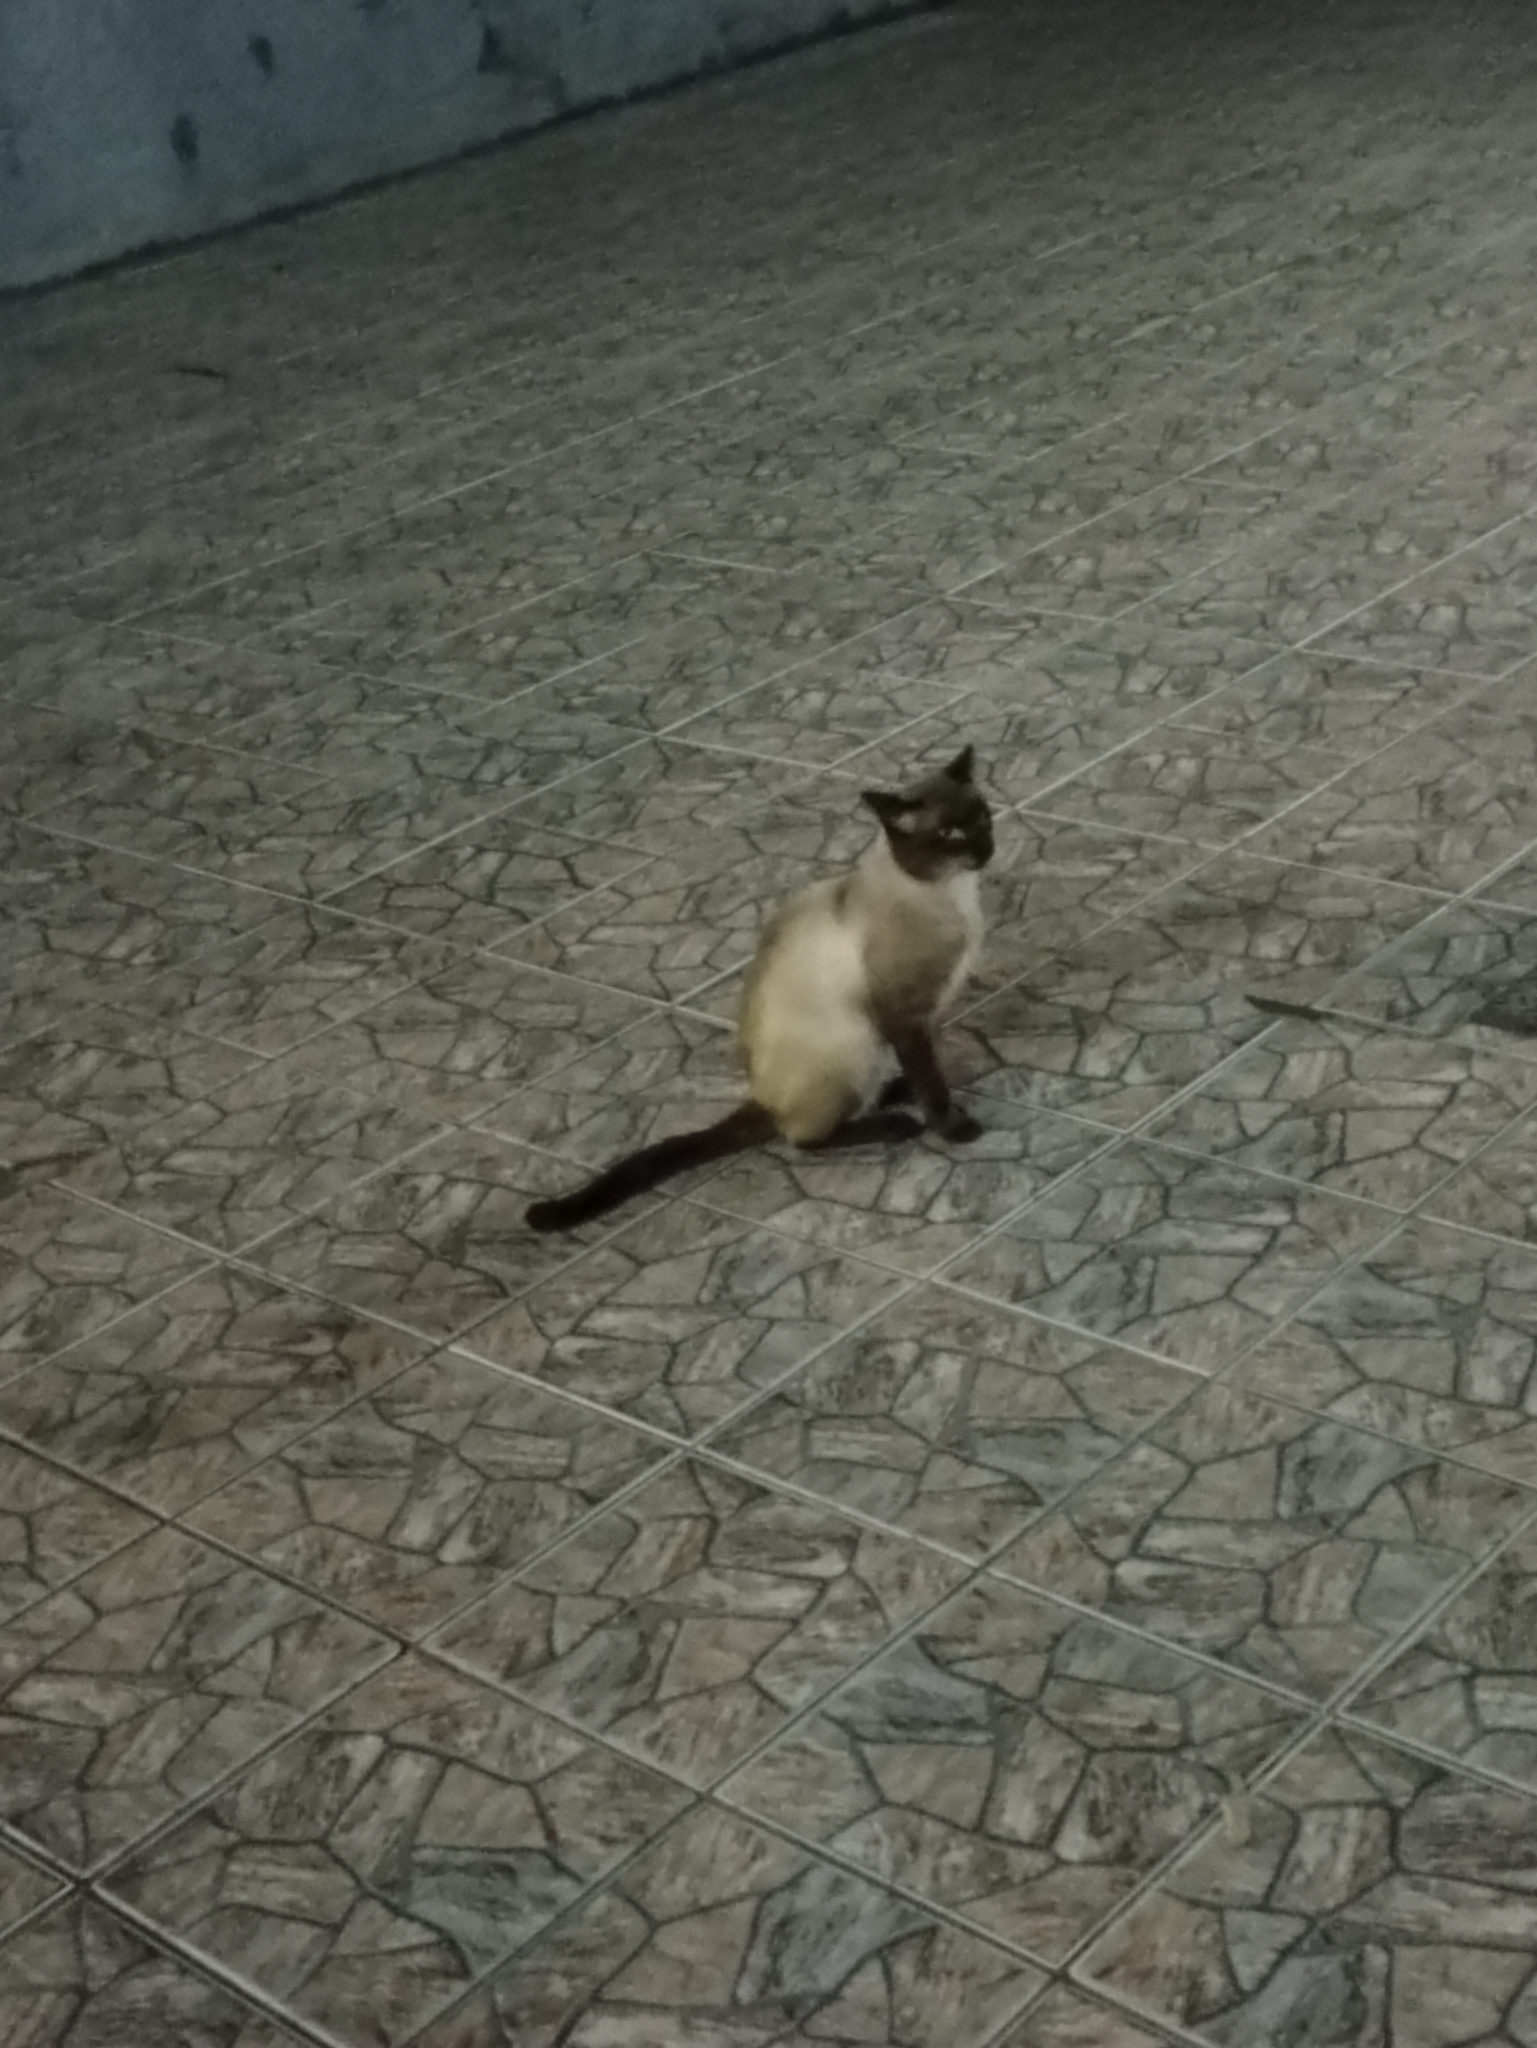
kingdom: Animalia
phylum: Chordata
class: Mammalia
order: Carnivora
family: Felidae
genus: Felis
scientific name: Felis catus
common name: Domestic cat
